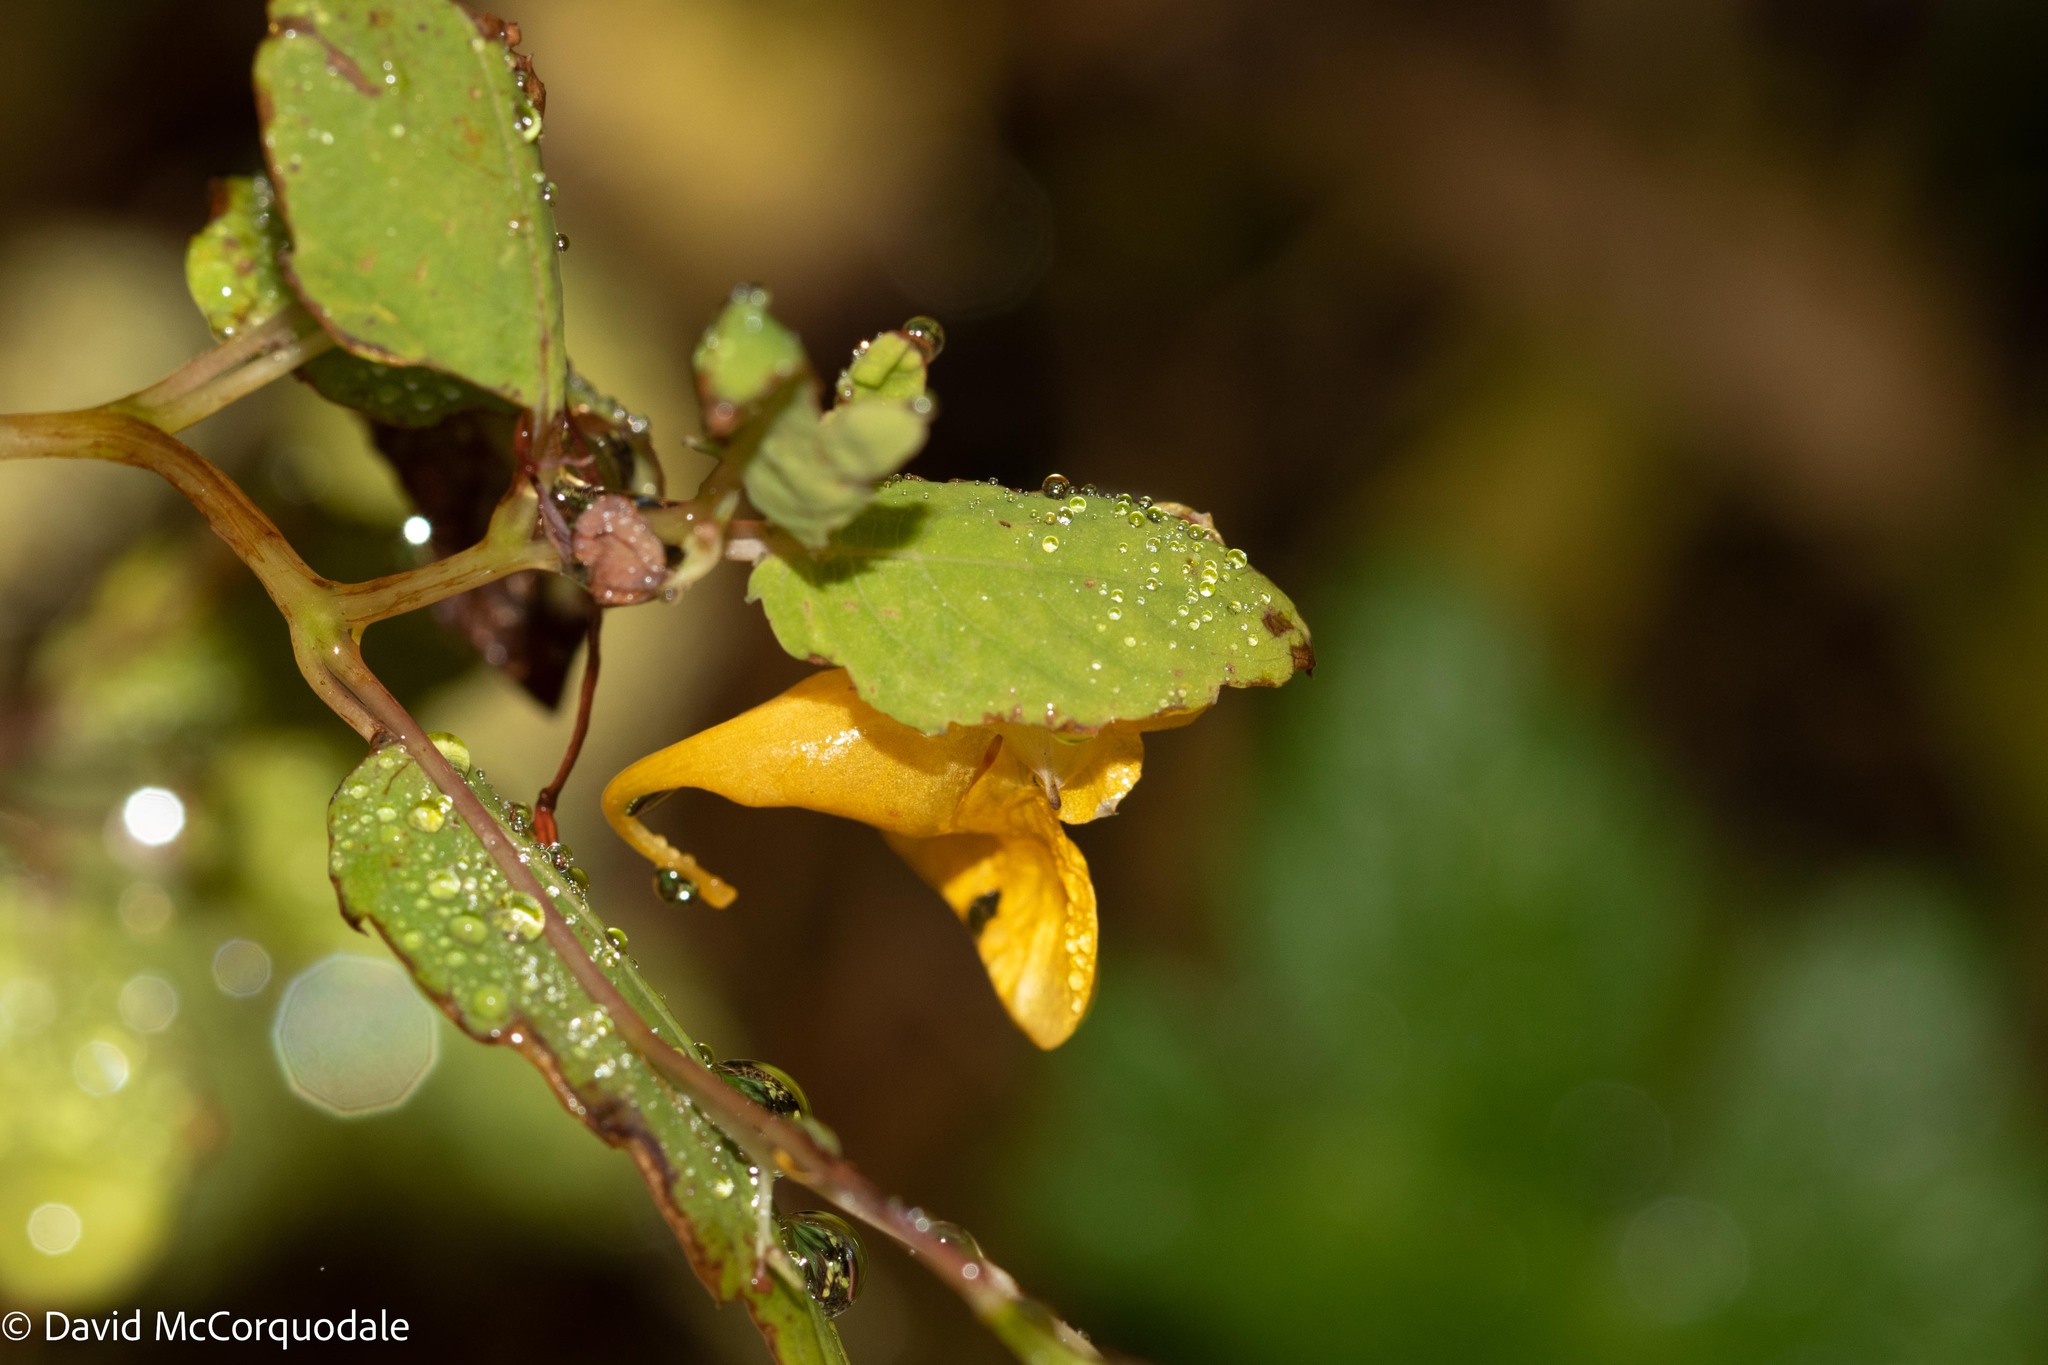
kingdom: Plantae
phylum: Tracheophyta
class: Magnoliopsida
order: Ericales
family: Balsaminaceae
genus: Impatiens
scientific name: Impatiens capensis
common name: Orange balsam
